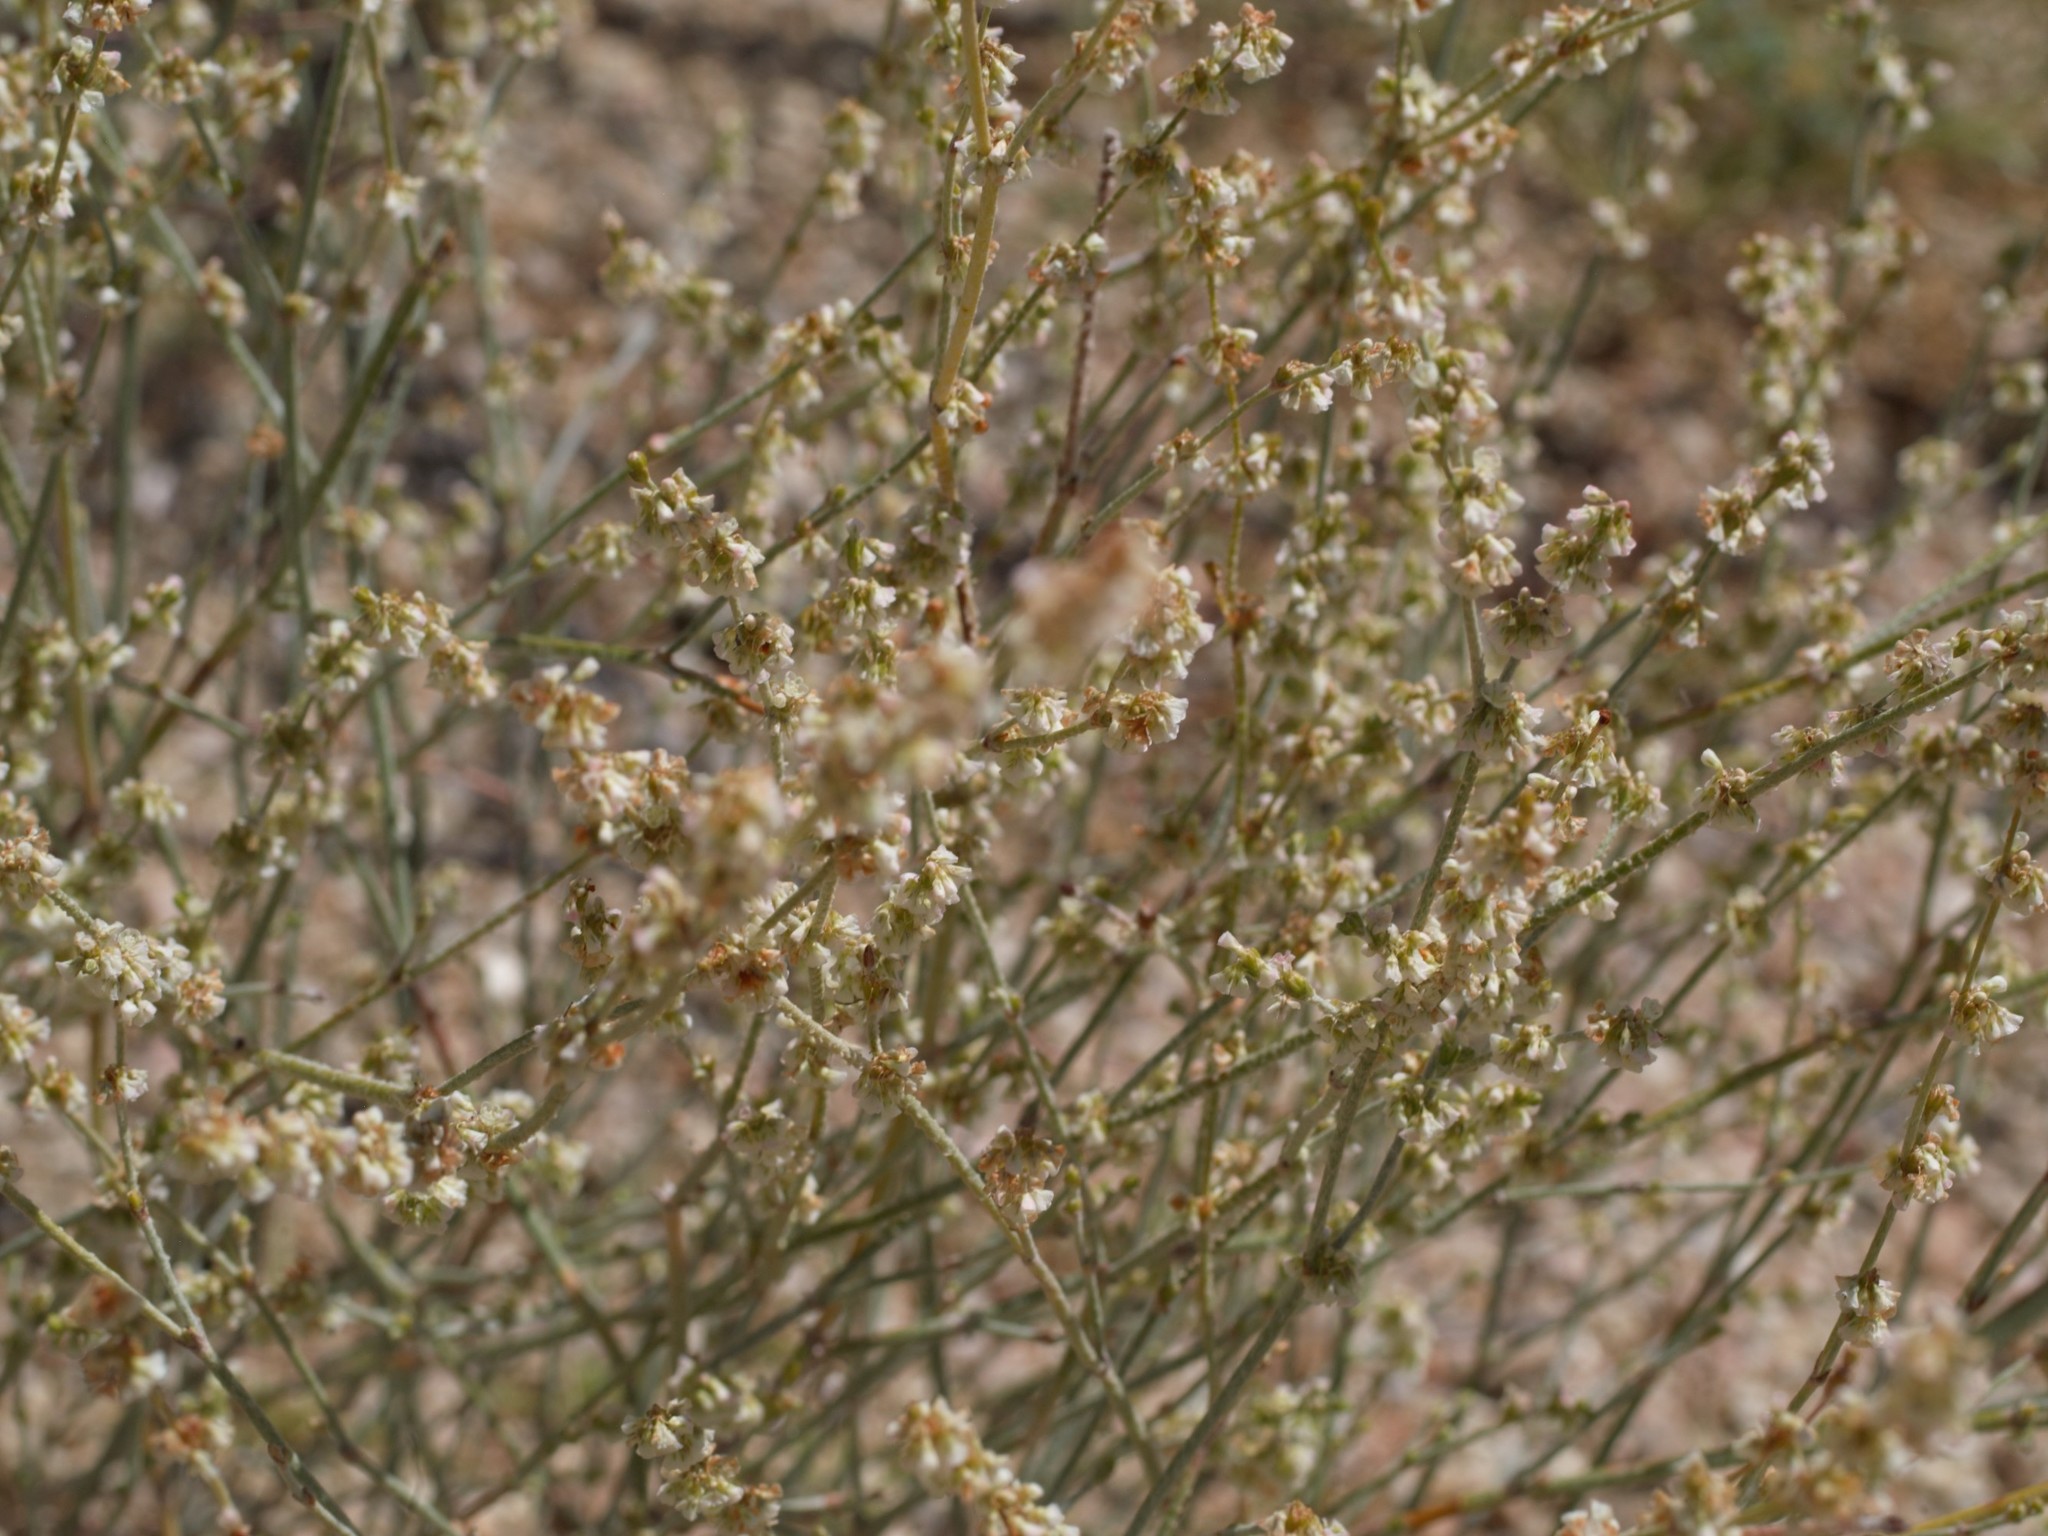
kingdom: Plantae
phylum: Tracheophyta
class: Magnoliopsida
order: Caryophyllales
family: Polygonaceae
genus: Eriogonum
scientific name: Eriogonum polycladon
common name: Sorrel wild buckwheat
